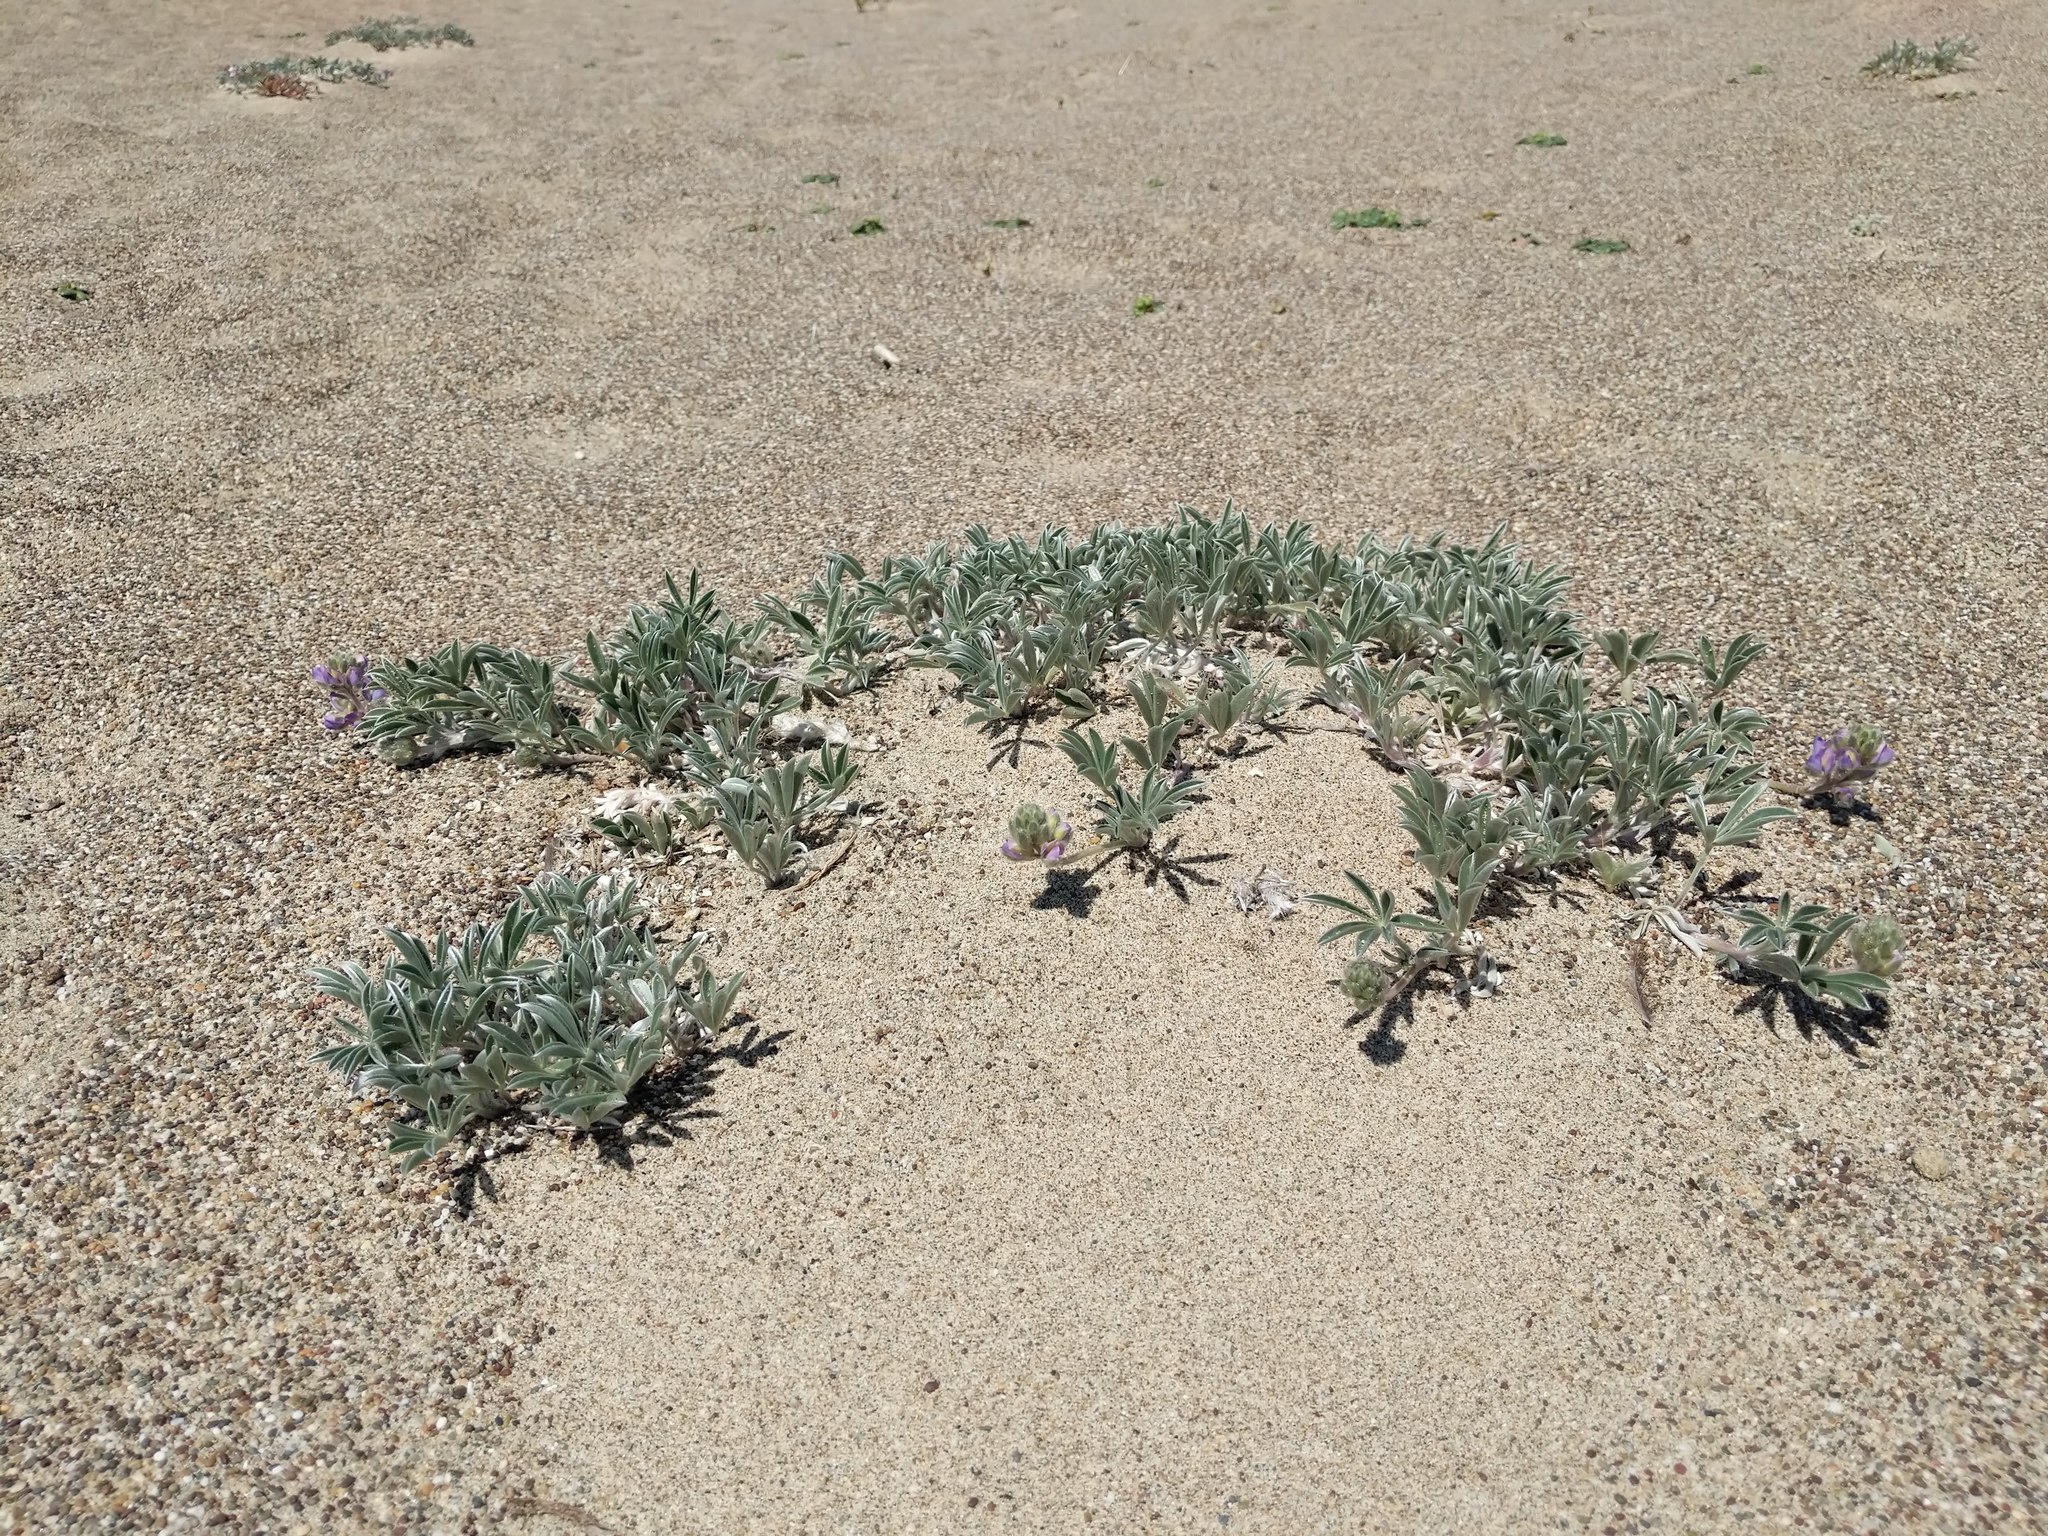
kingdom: Plantae
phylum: Tracheophyta
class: Magnoliopsida
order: Fabales
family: Fabaceae
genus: Lupinus
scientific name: Lupinus tidestromii
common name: Clover lupine
